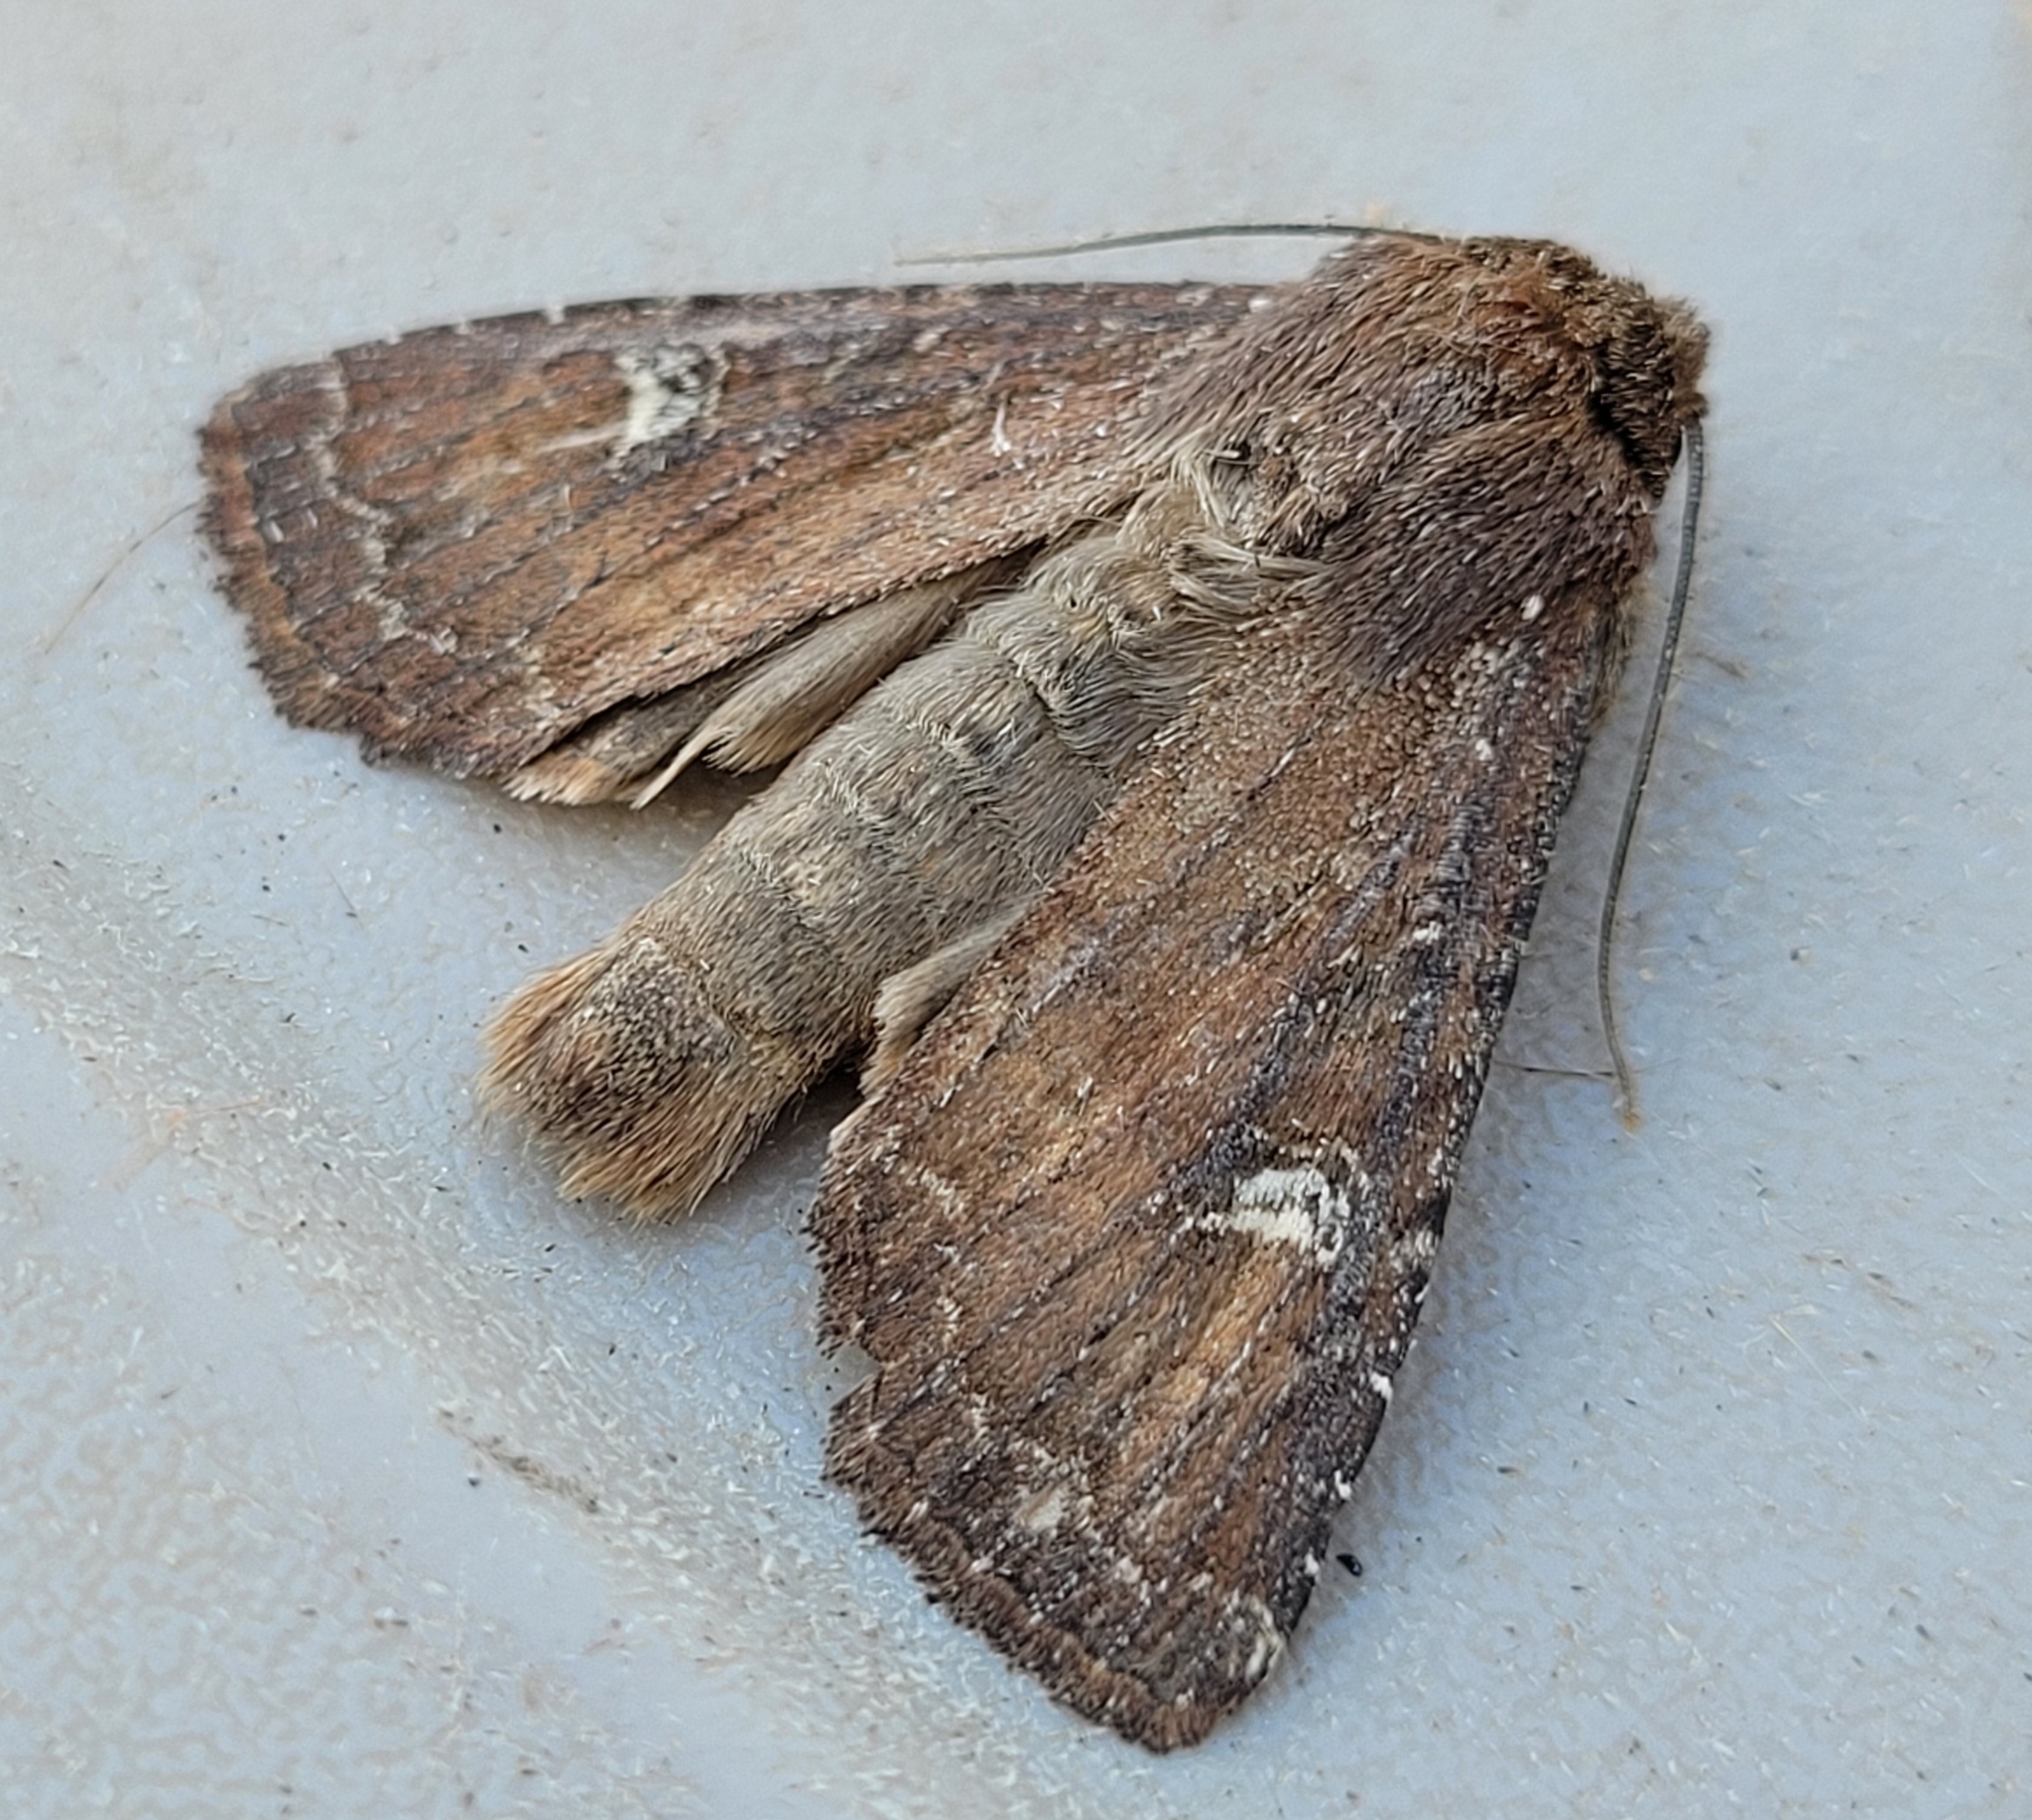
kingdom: Animalia
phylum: Arthropoda
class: Insecta
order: Lepidoptera
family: Noctuidae
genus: Apamea
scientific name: Apamea cogitata
